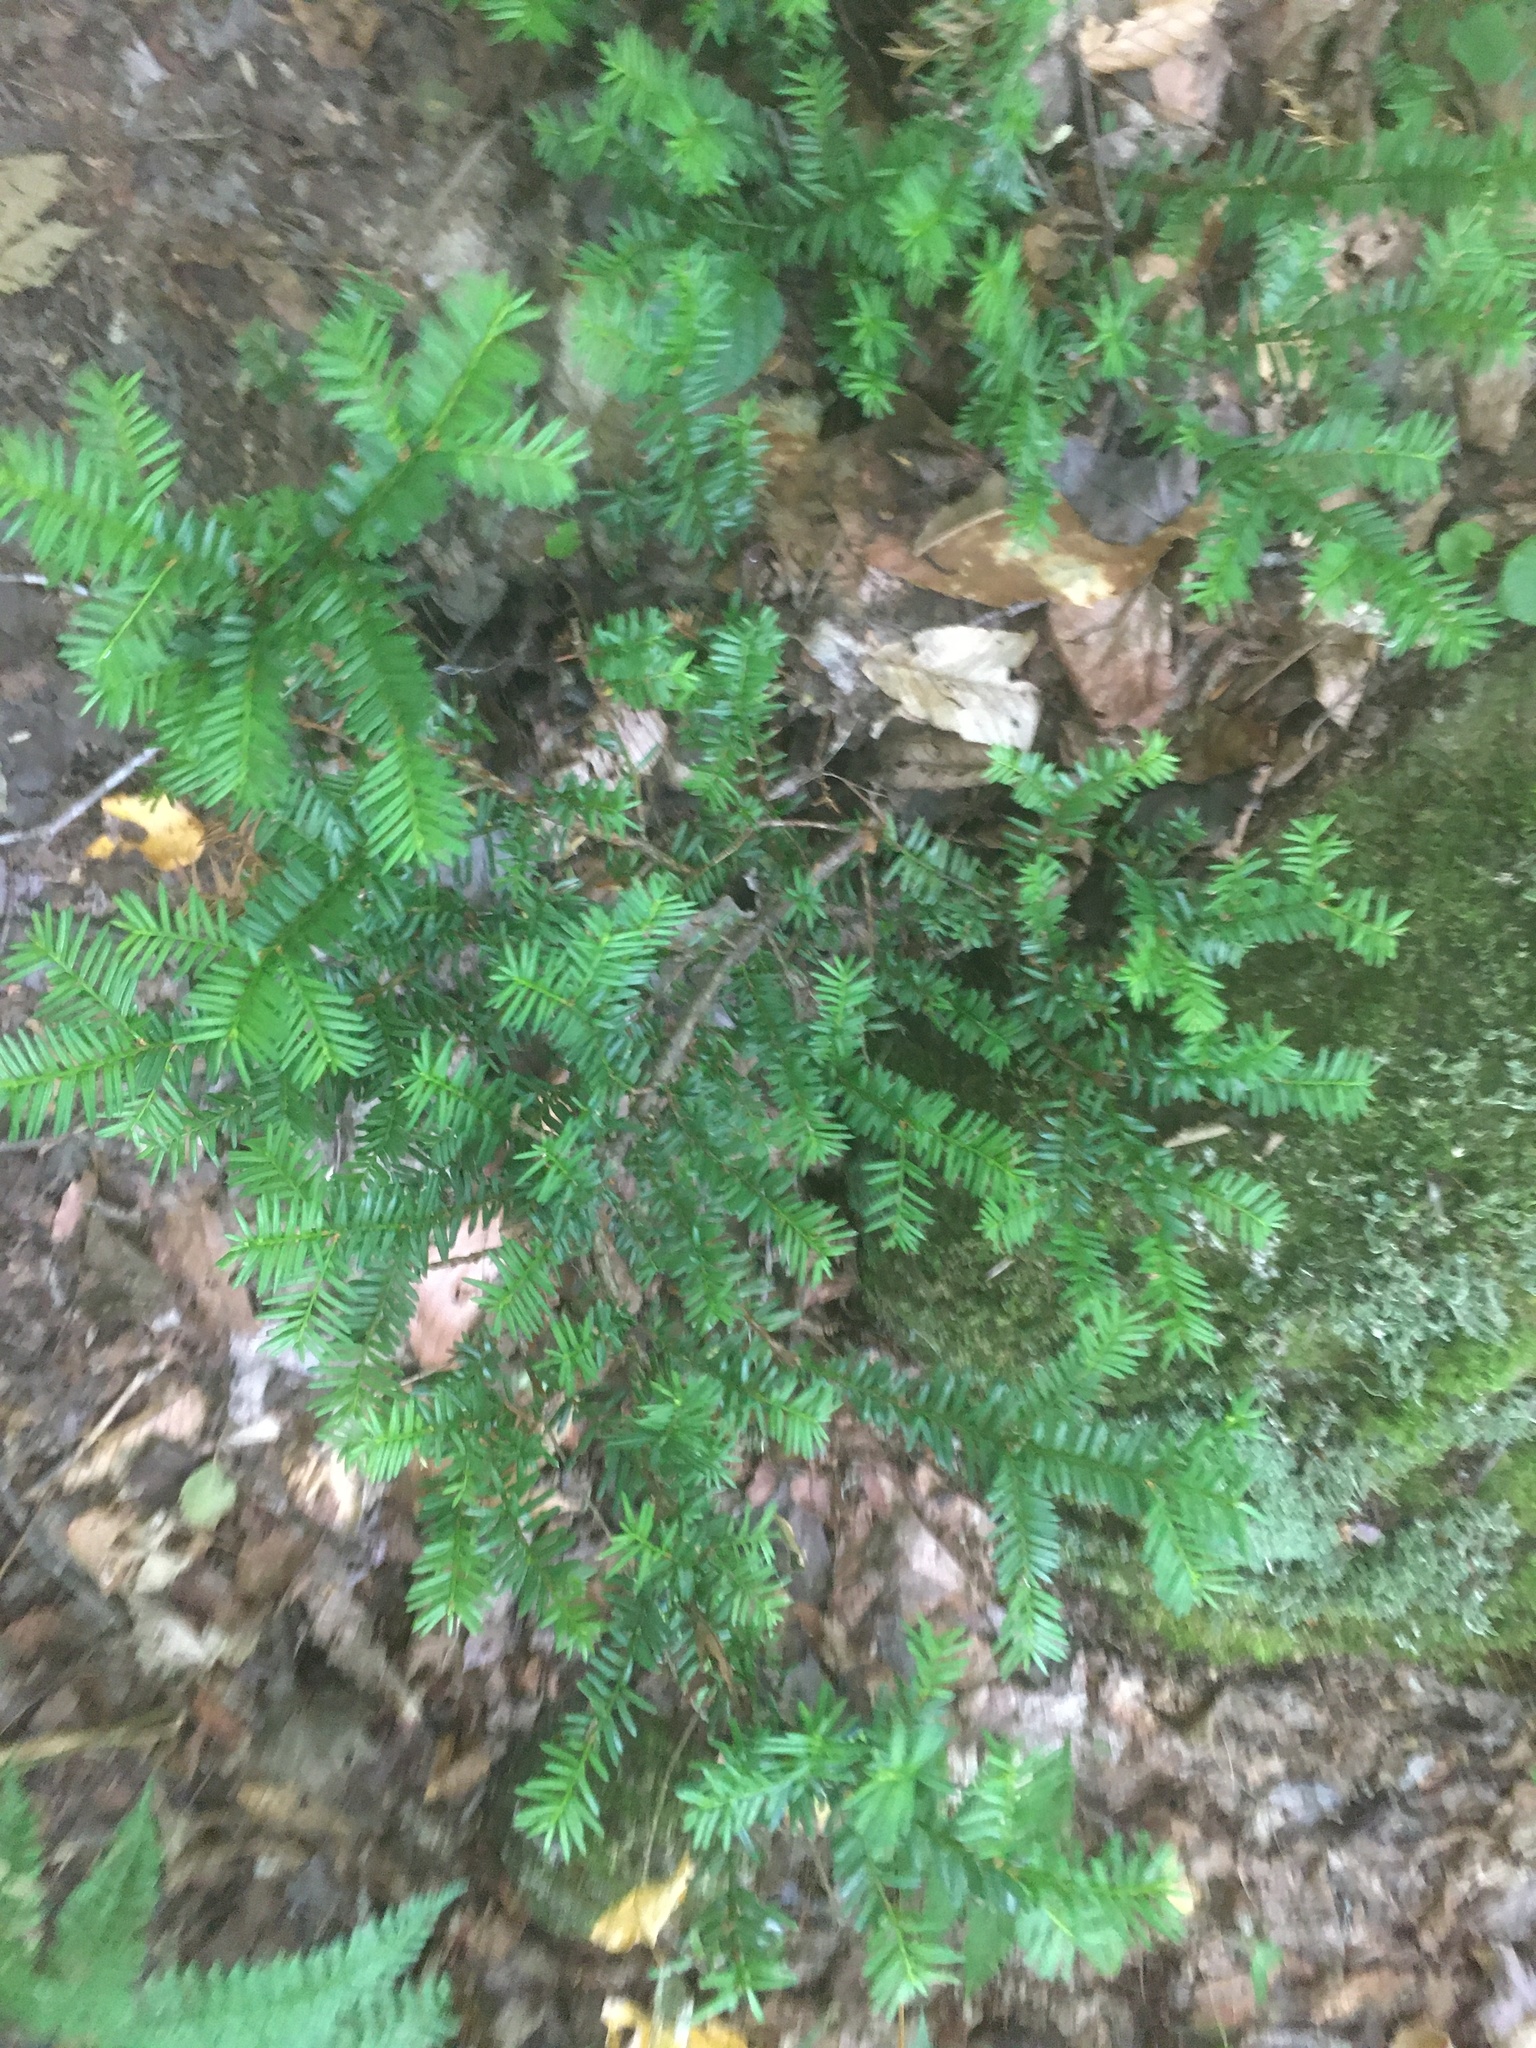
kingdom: Plantae
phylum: Tracheophyta
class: Pinopsida
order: Pinales
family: Taxaceae
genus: Taxus
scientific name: Taxus canadensis
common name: American yew
